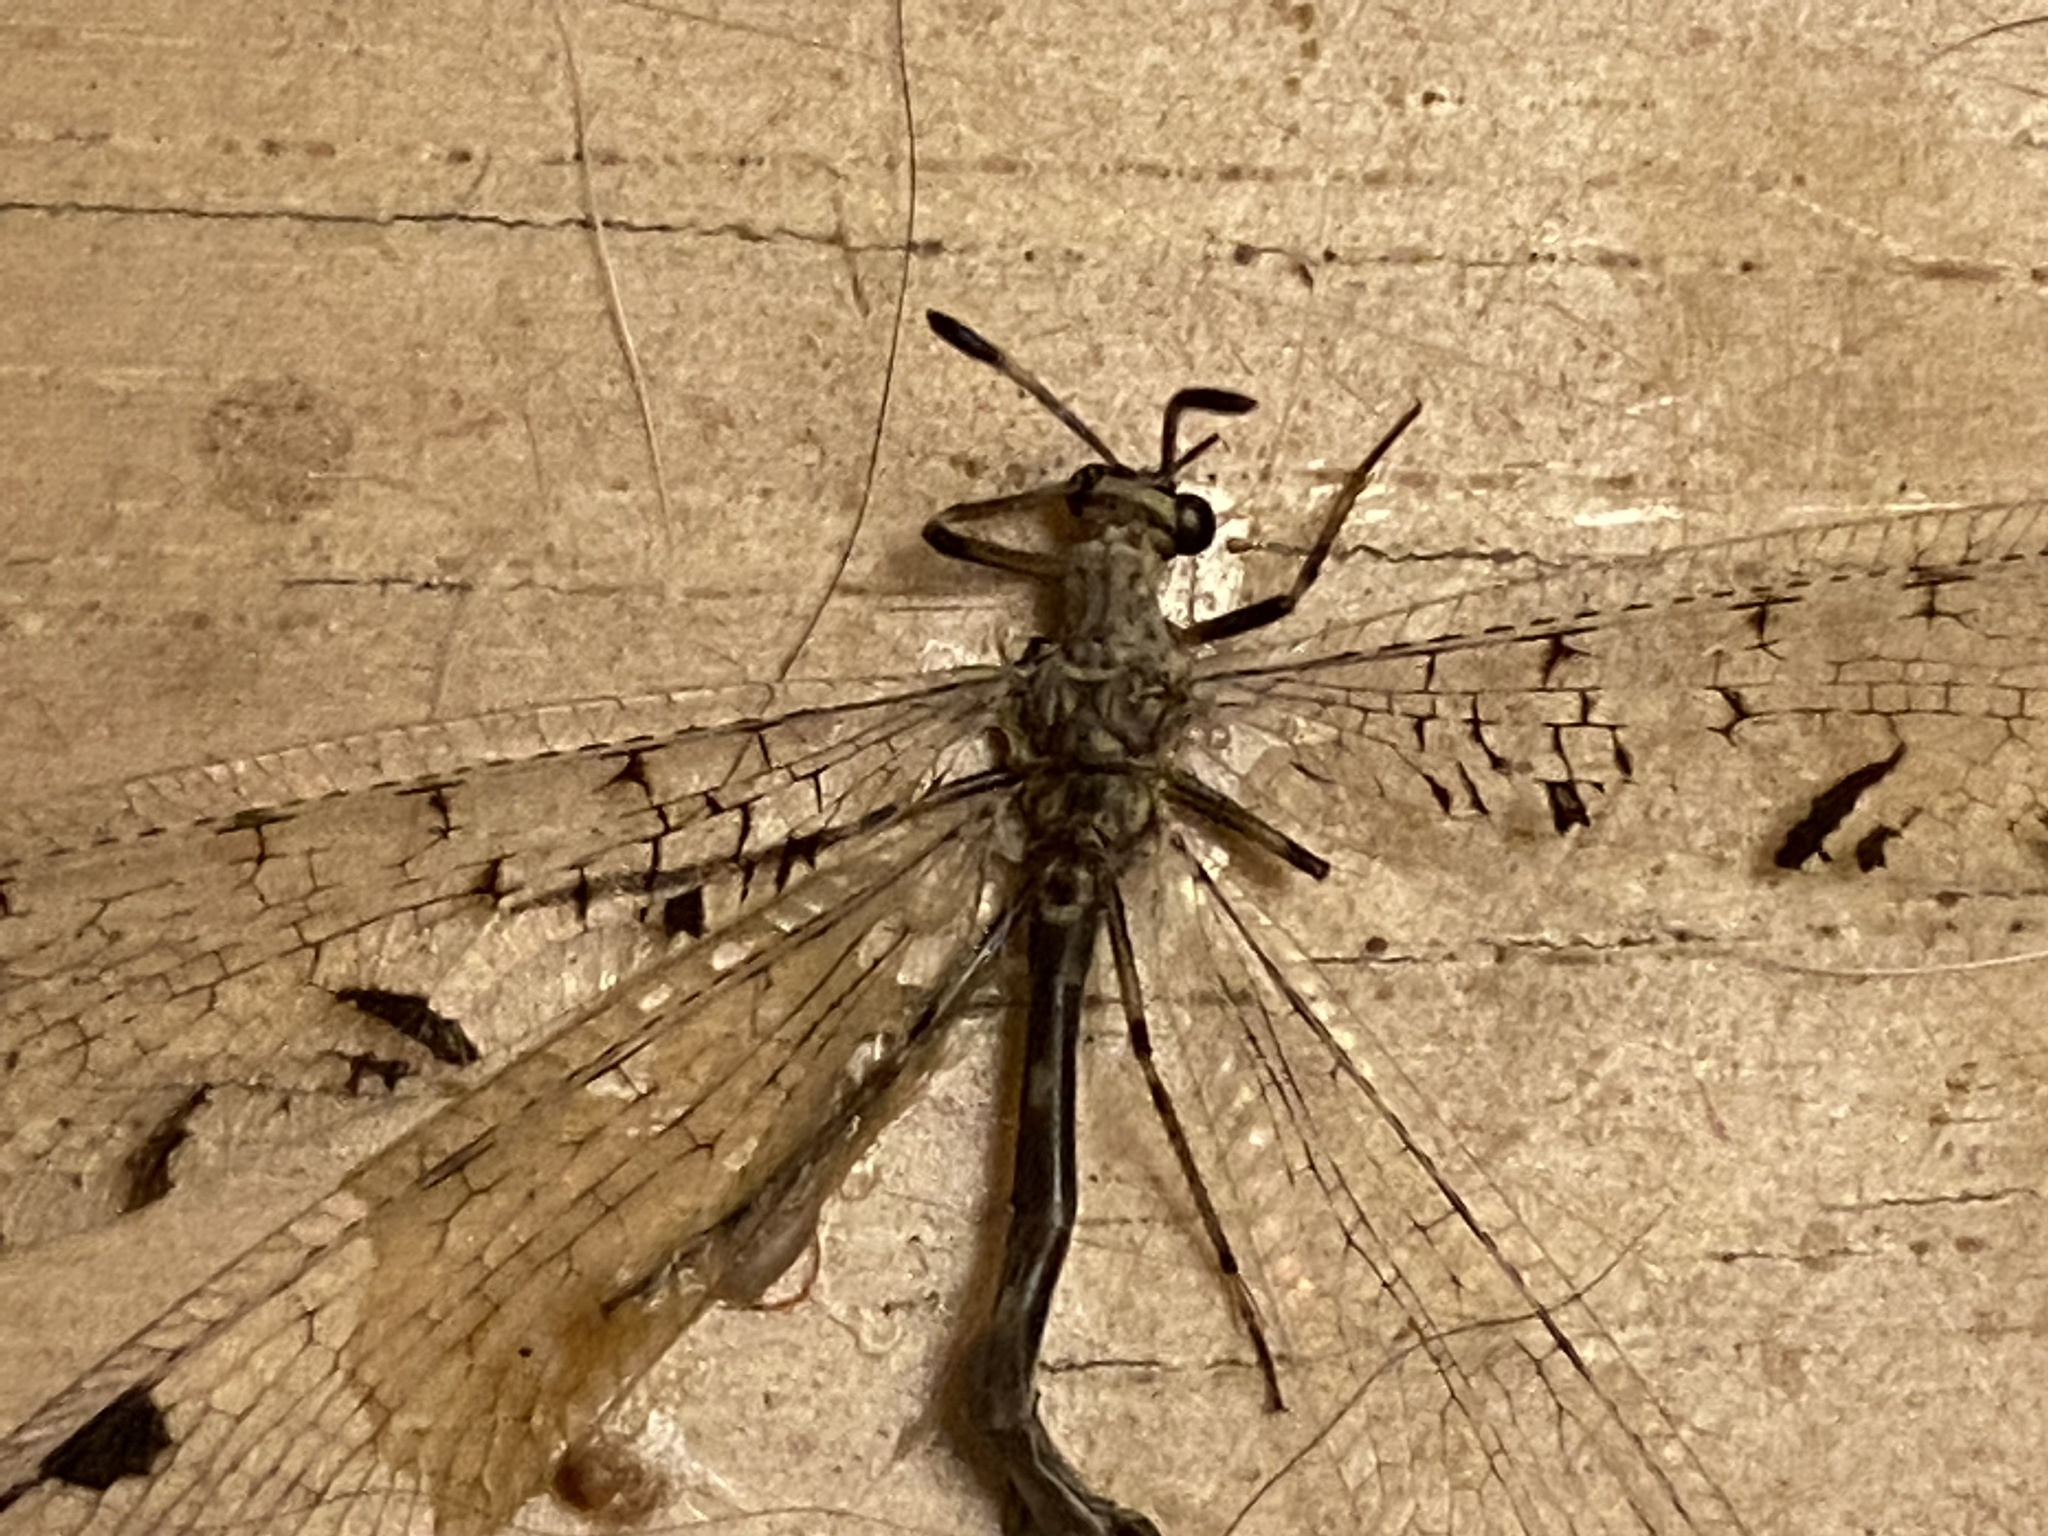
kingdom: Animalia
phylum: Arthropoda
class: Insecta
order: Neuroptera
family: Myrmeleontidae
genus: Dendroleon
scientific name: Dendroleon speciosus
